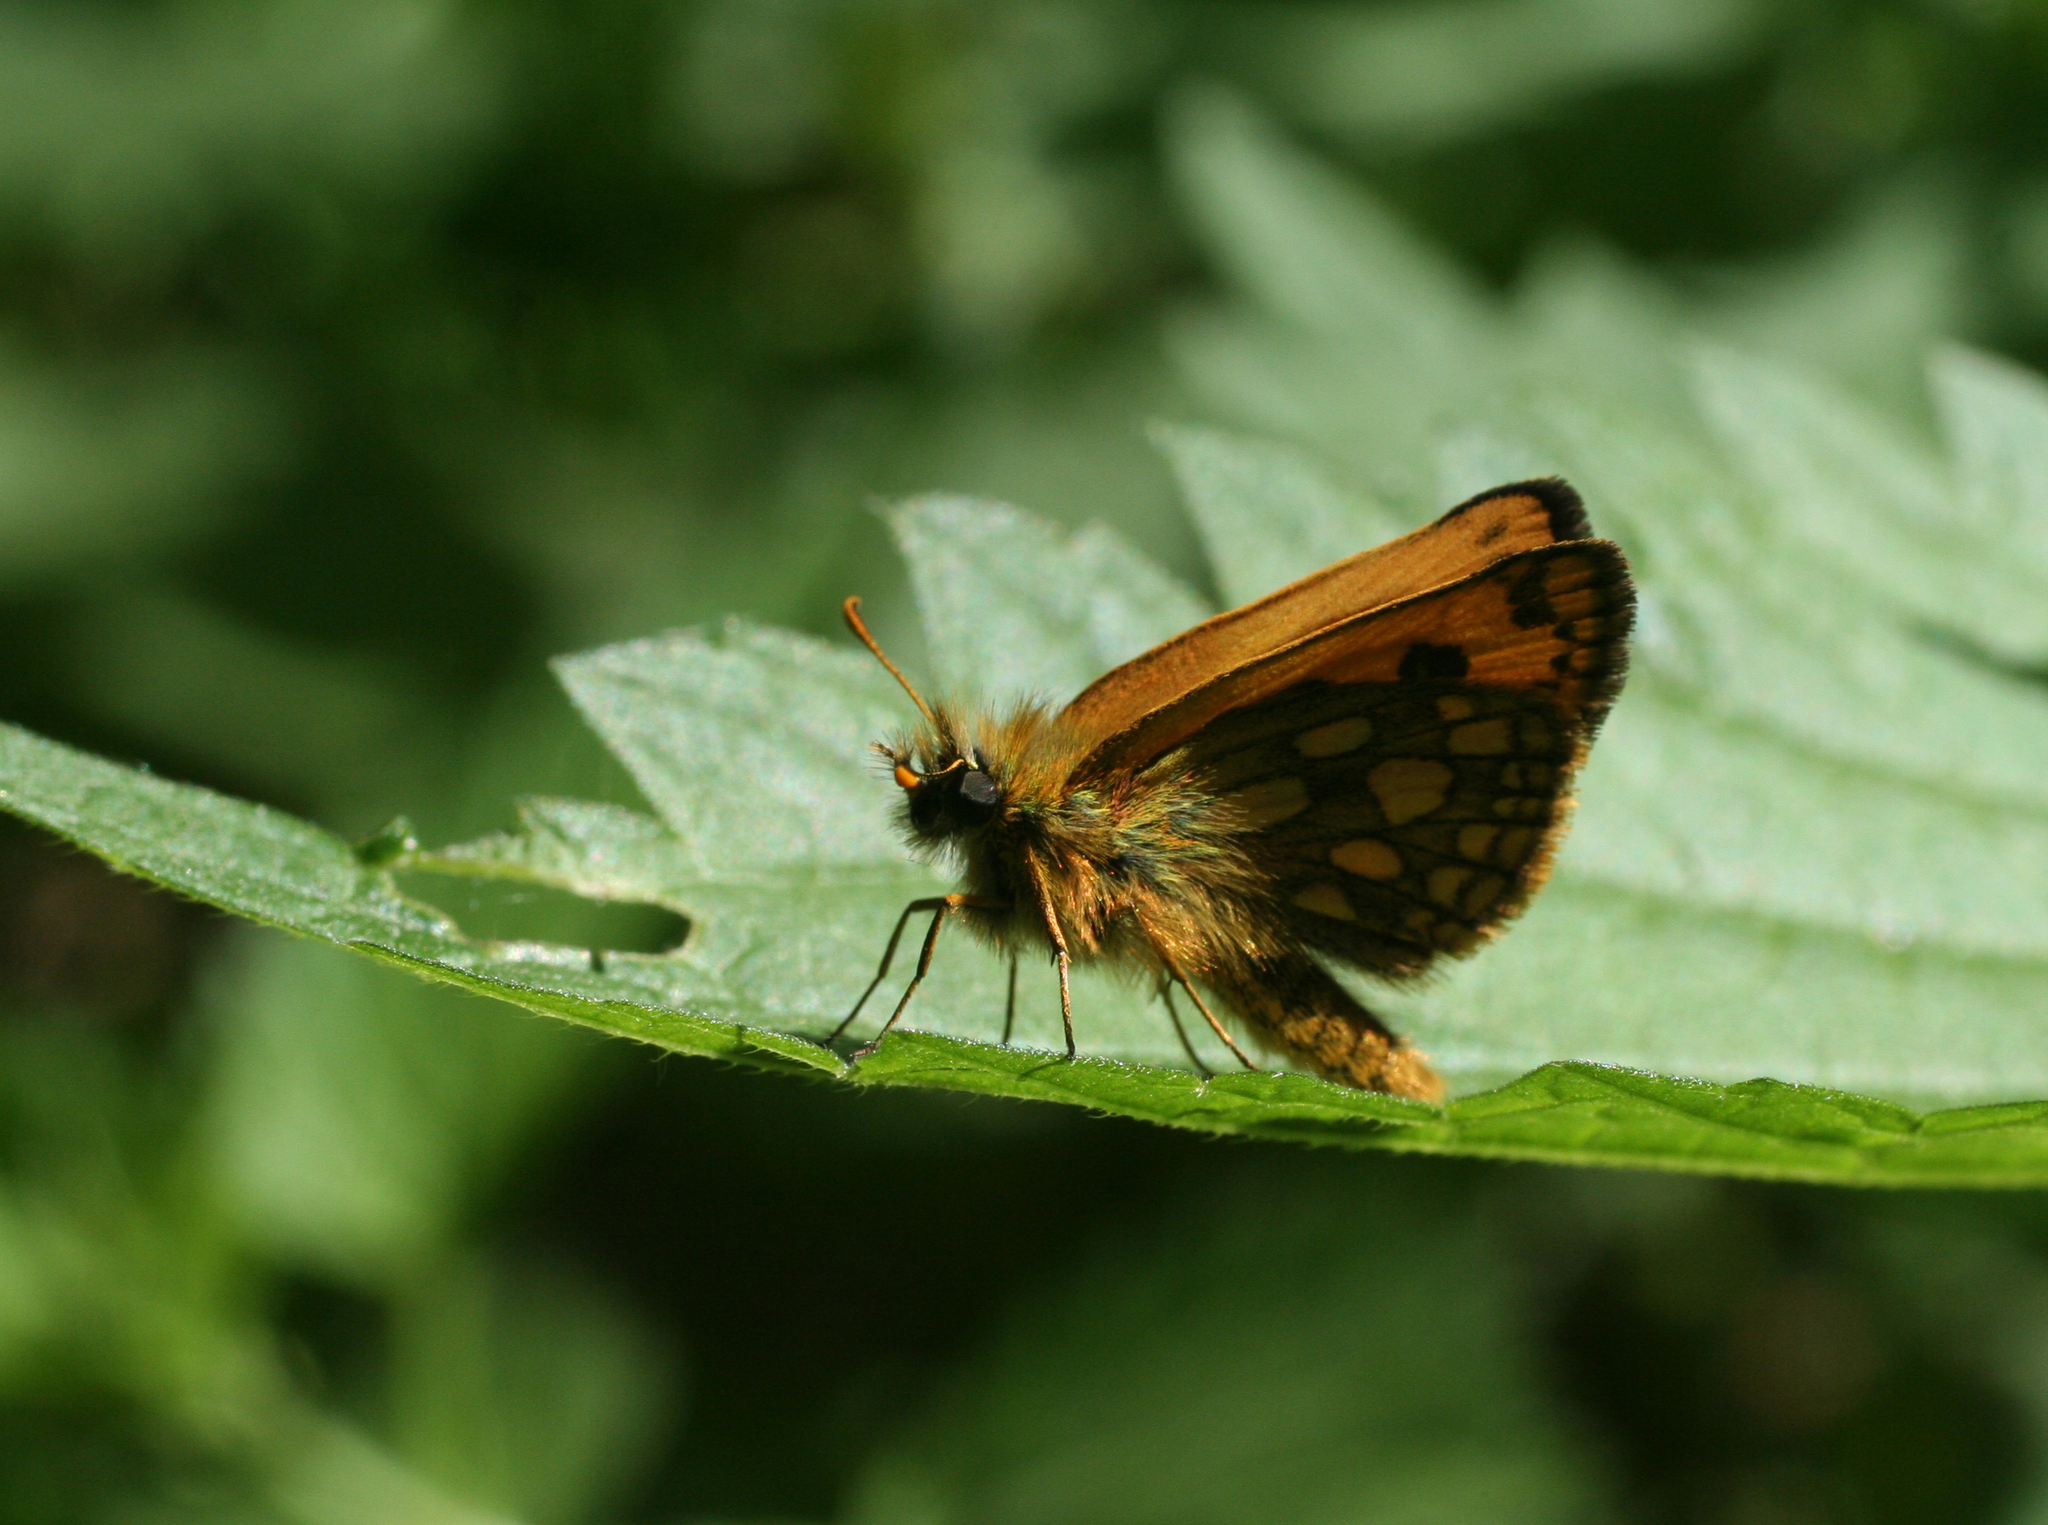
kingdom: Animalia
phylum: Arthropoda
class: Insecta
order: Lepidoptera
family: Hesperiidae
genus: Carterocephalus
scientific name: Carterocephalus silvicola
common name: Northern chequered skipper
